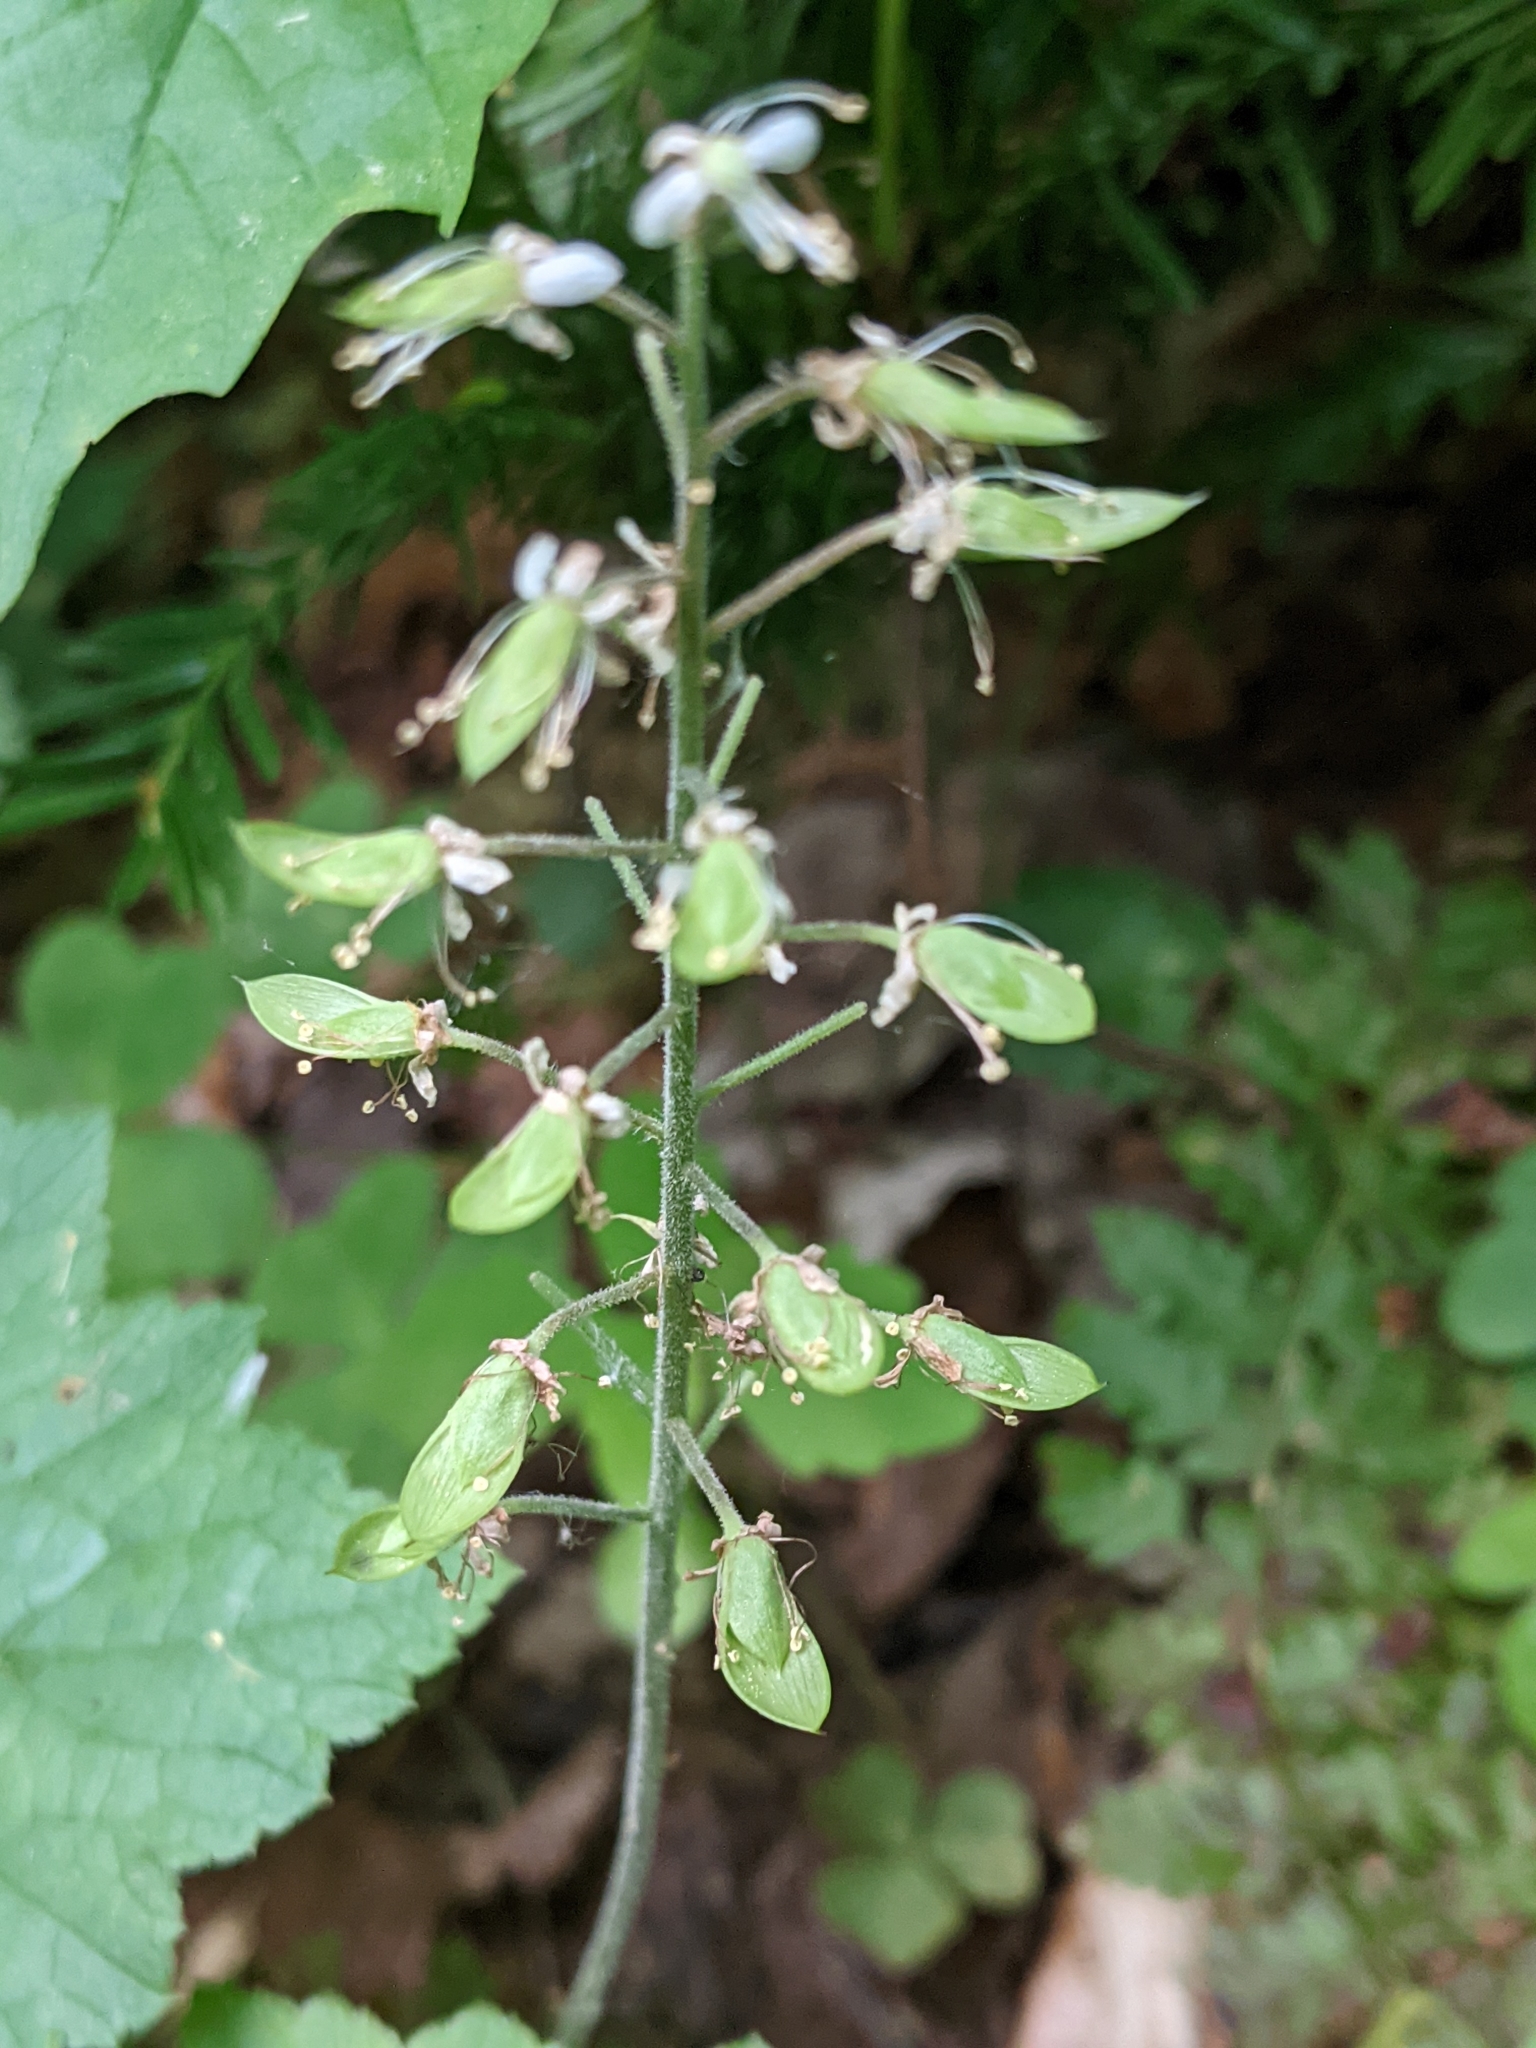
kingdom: Plantae
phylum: Tracheophyta
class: Magnoliopsida
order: Saxifragales
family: Saxifragaceae
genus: Tiarella
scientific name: Tiarella stolonifera
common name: Stoloniferous foamflower
